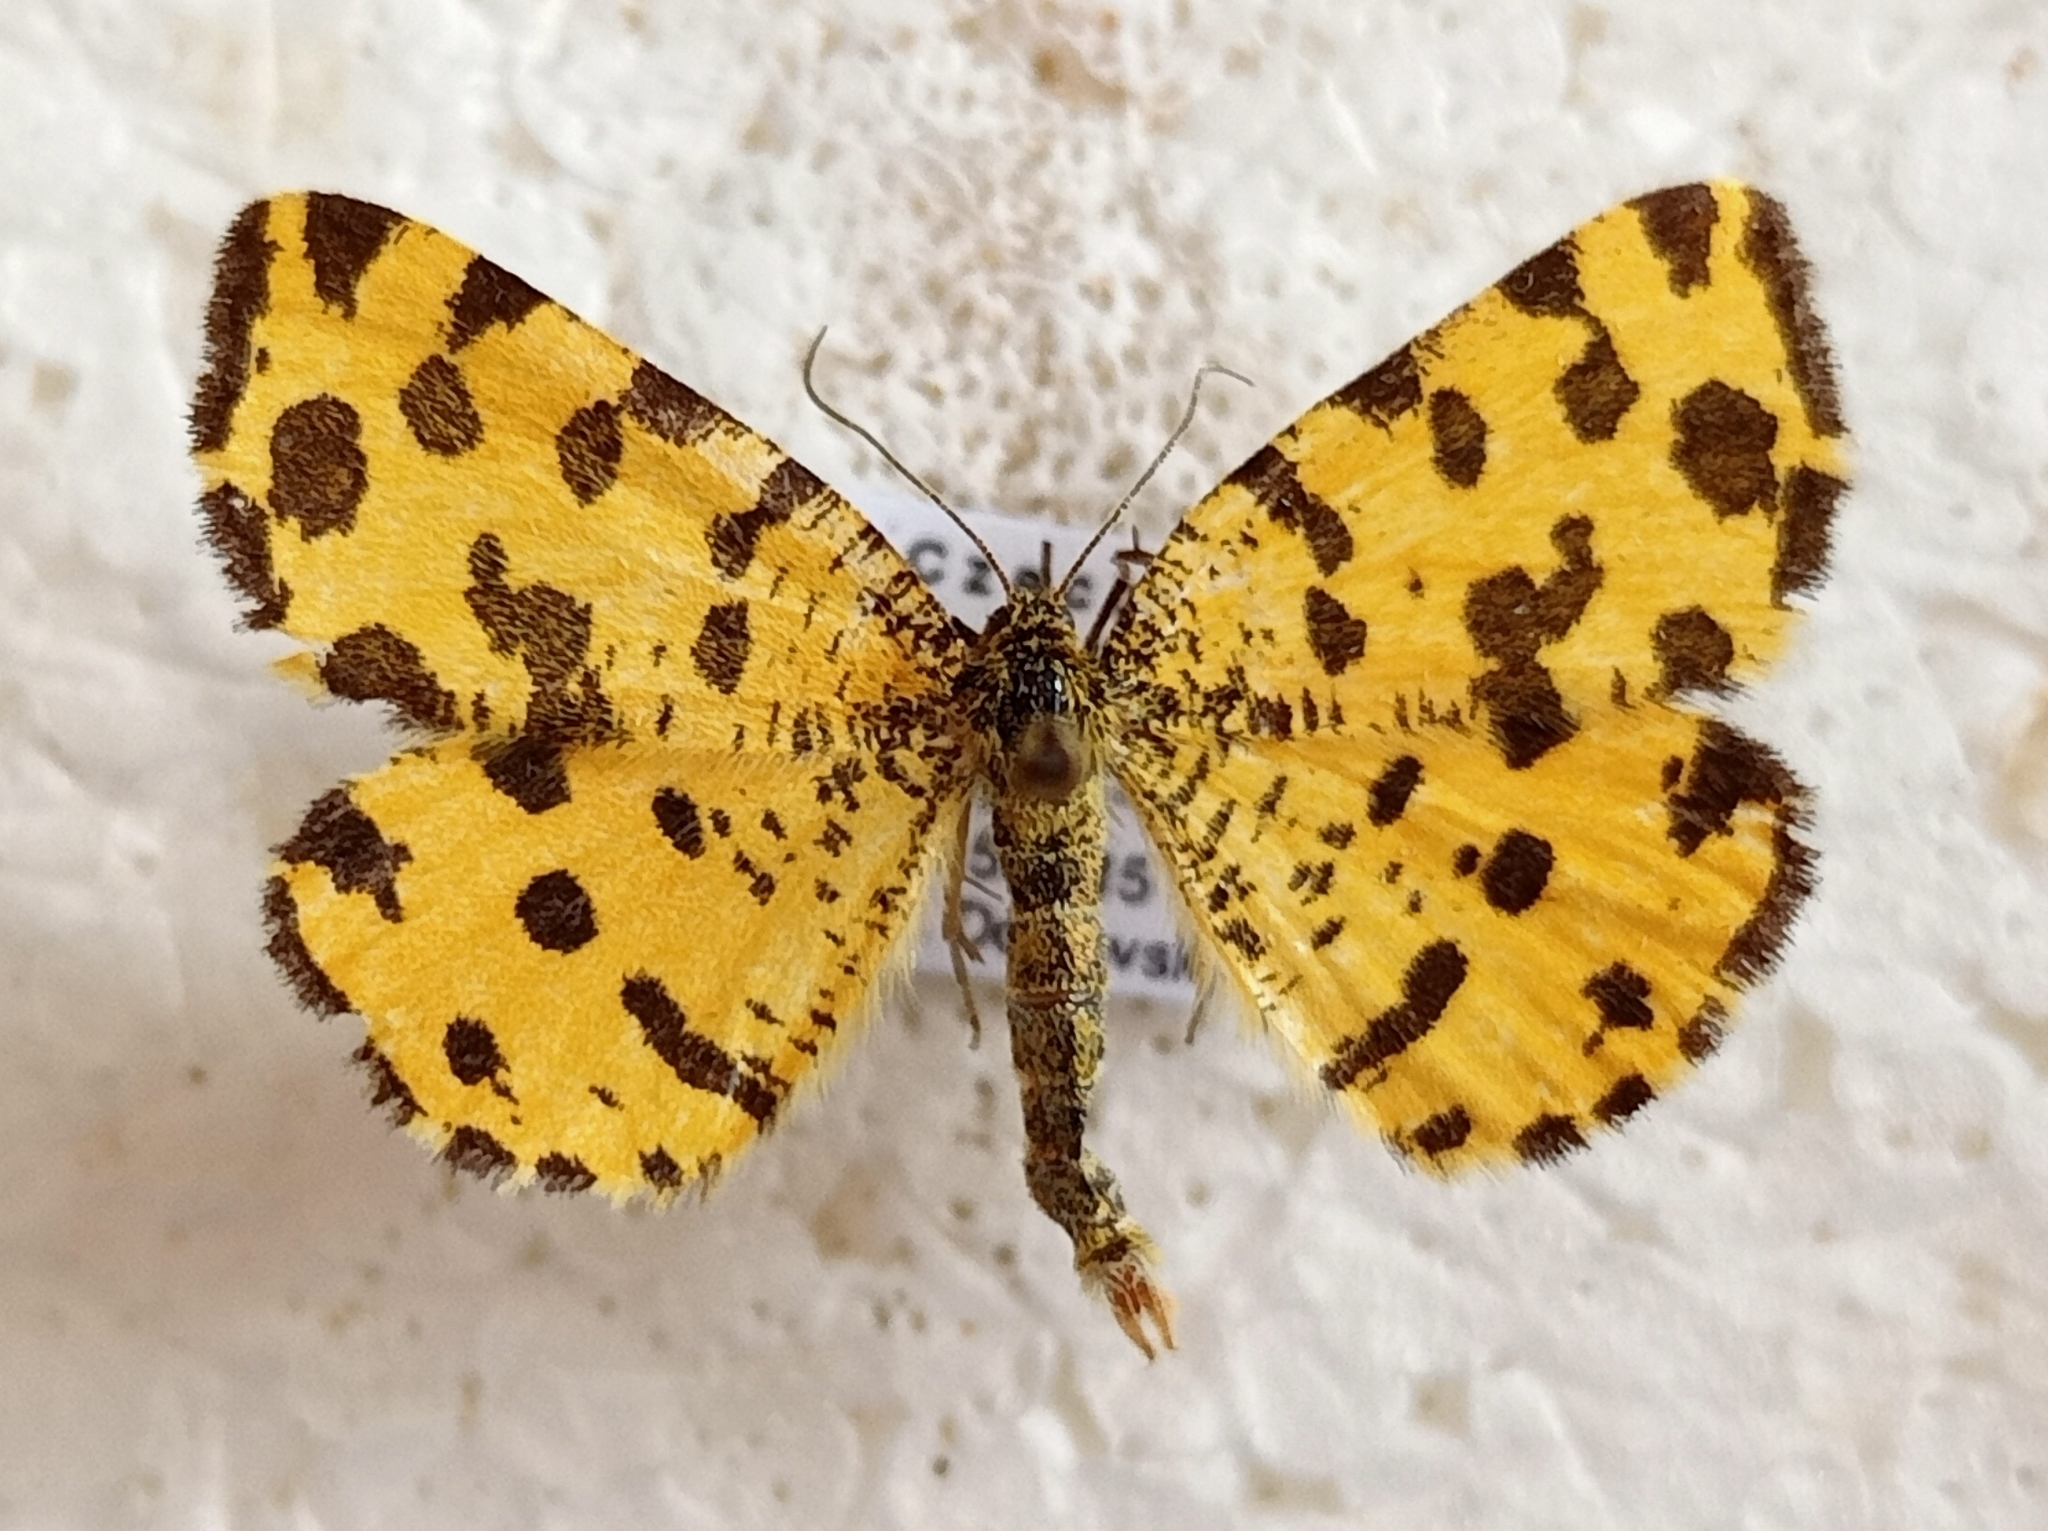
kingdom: Animalia
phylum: Arthropoda
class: Insecta
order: Lepidoptera
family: Geometridae
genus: Pseudopanthera
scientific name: Pseudopanthera macularia
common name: Speckled yellow
